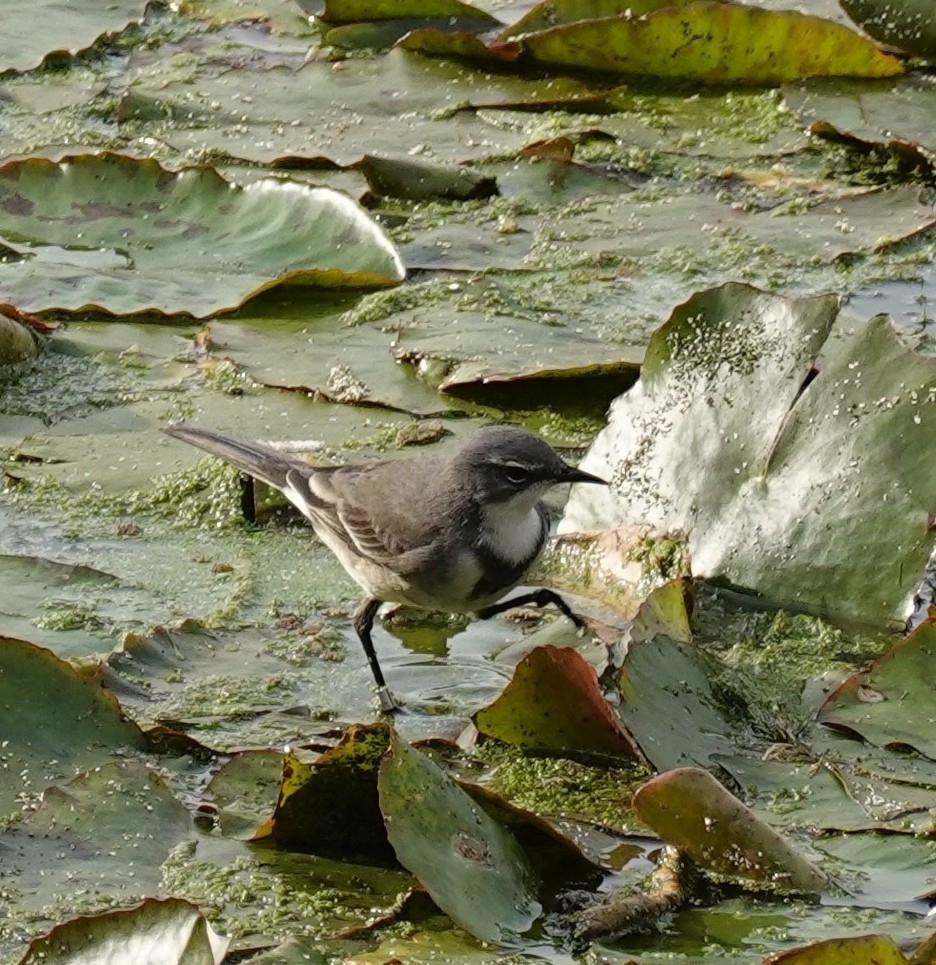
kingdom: Animalia
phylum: Chordata
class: Aves
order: Passeriformes
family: Motacillidae
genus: Motacilla
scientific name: Motacilla capensis
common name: Cape wagtail
